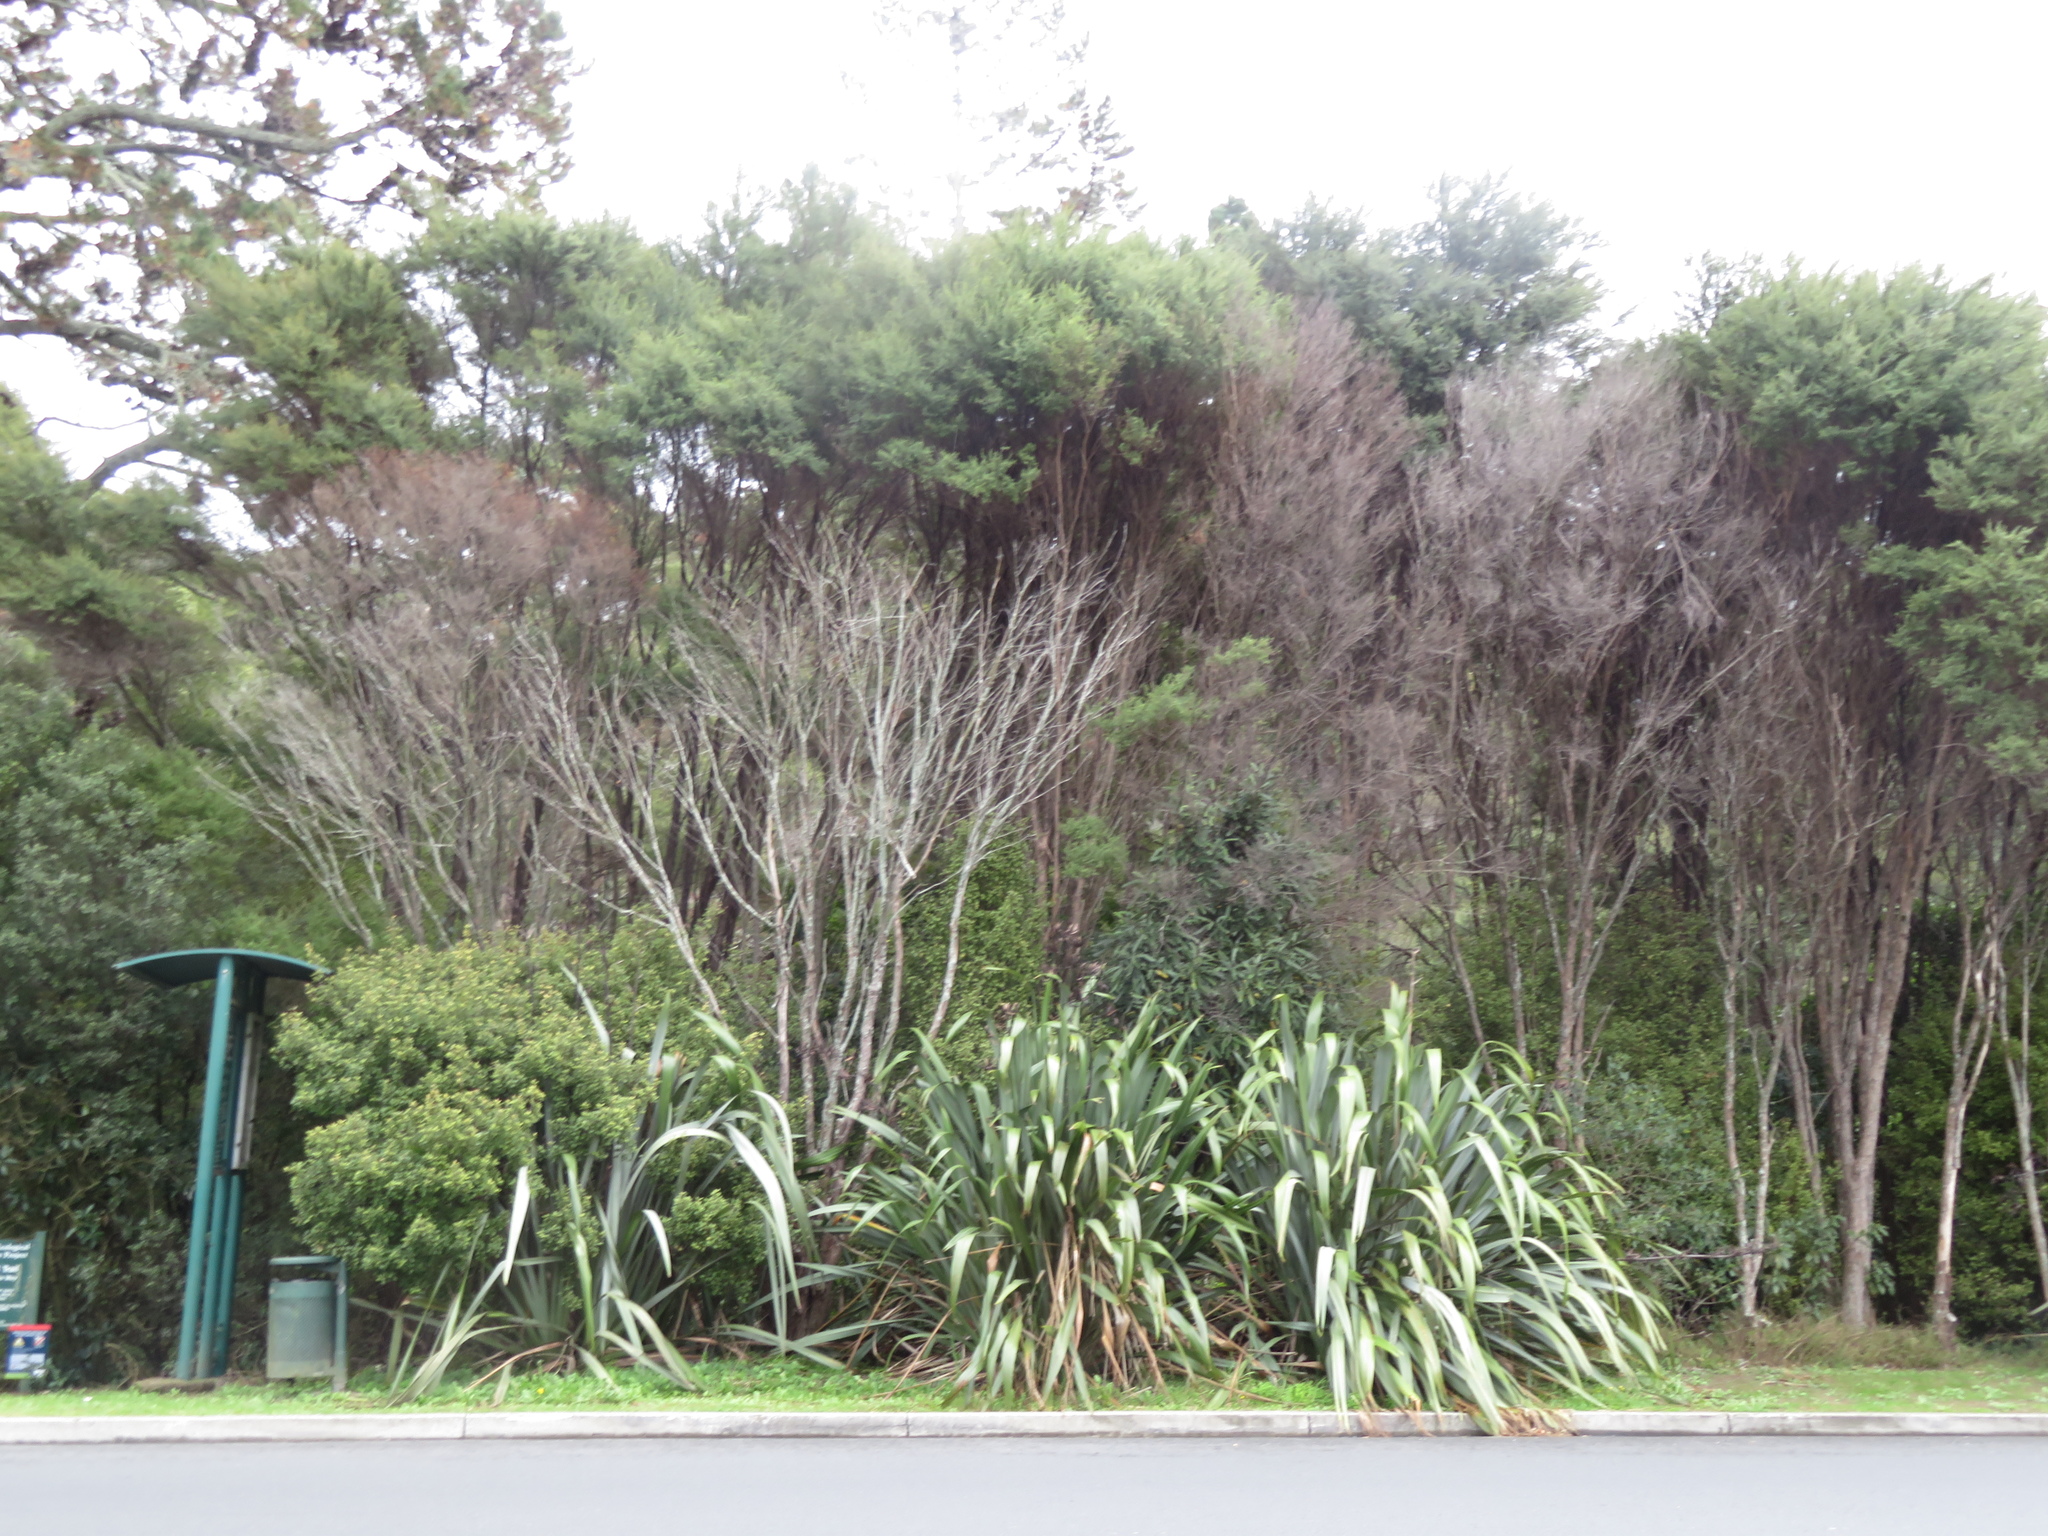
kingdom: Plantae
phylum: Tracheophyta
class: Magnoliopsida
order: Proteales
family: Proteaceae
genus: Knightia
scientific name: Knightia excelsa
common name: New zealand-honeysuckle
